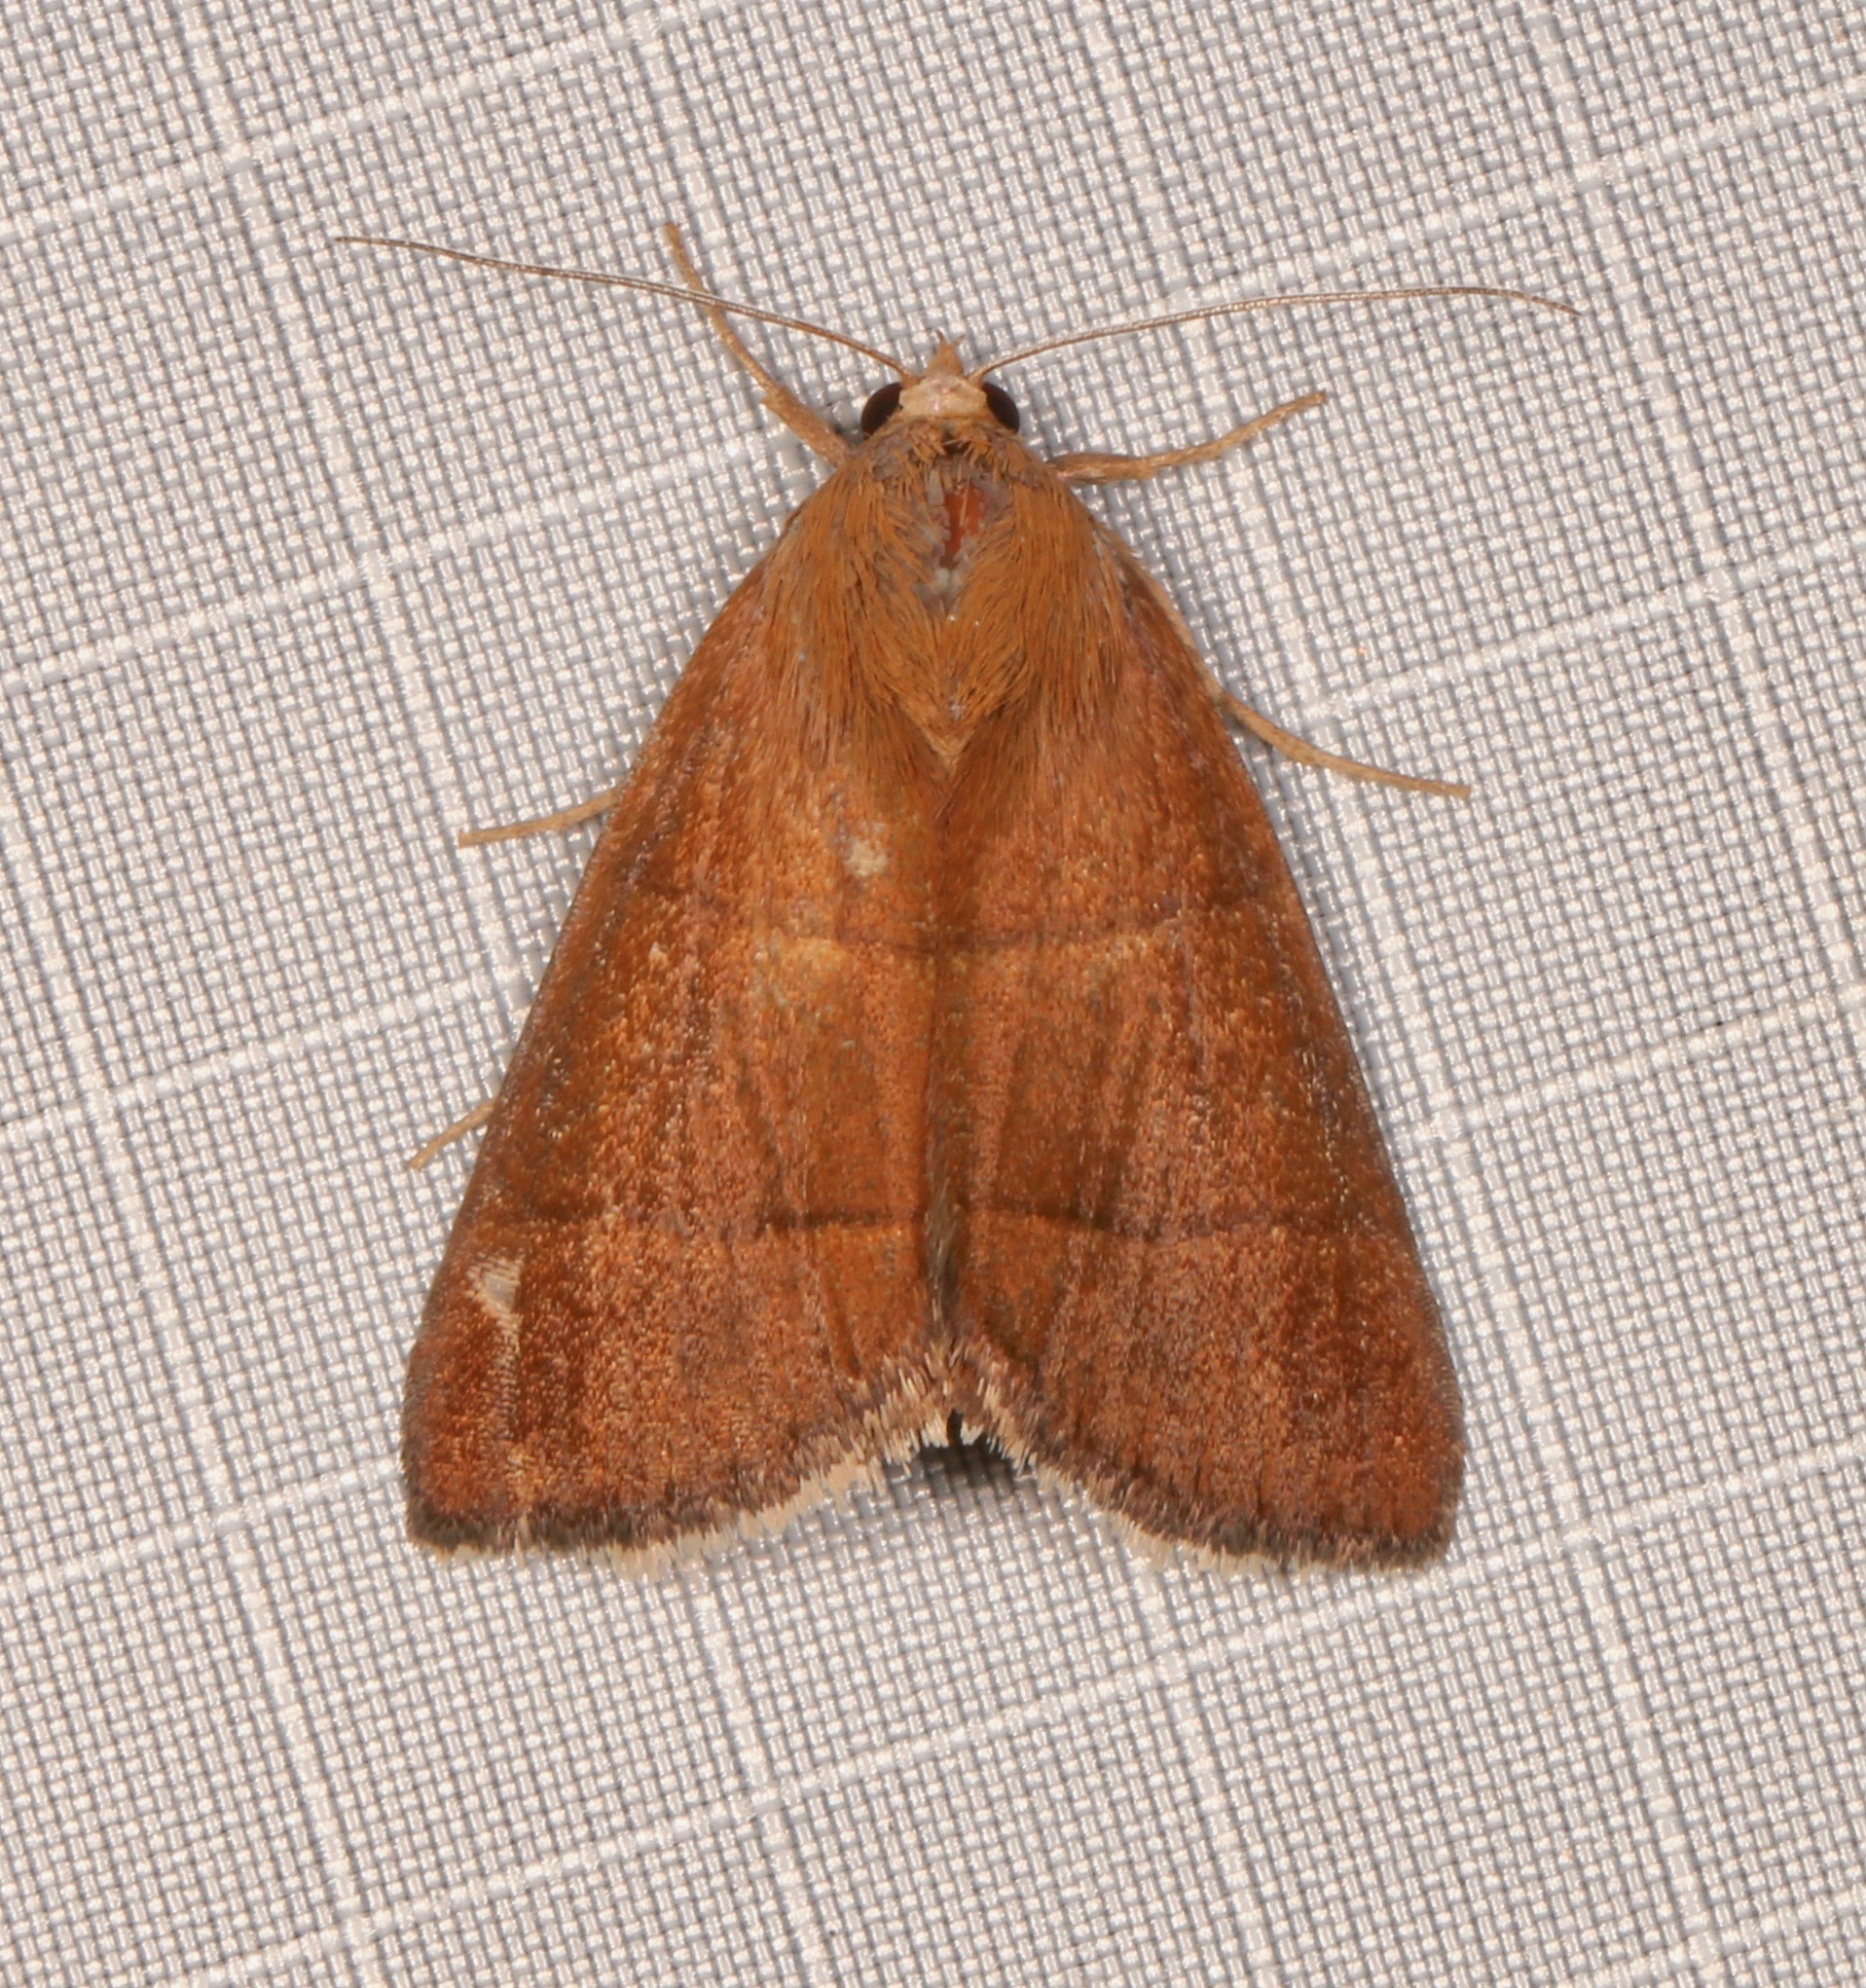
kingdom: Animalia
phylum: Arthropoda
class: Insecta
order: Lepidoptera
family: Erebidae
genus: Argyrostrotis
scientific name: Argyrostrotis quadrifilaris
